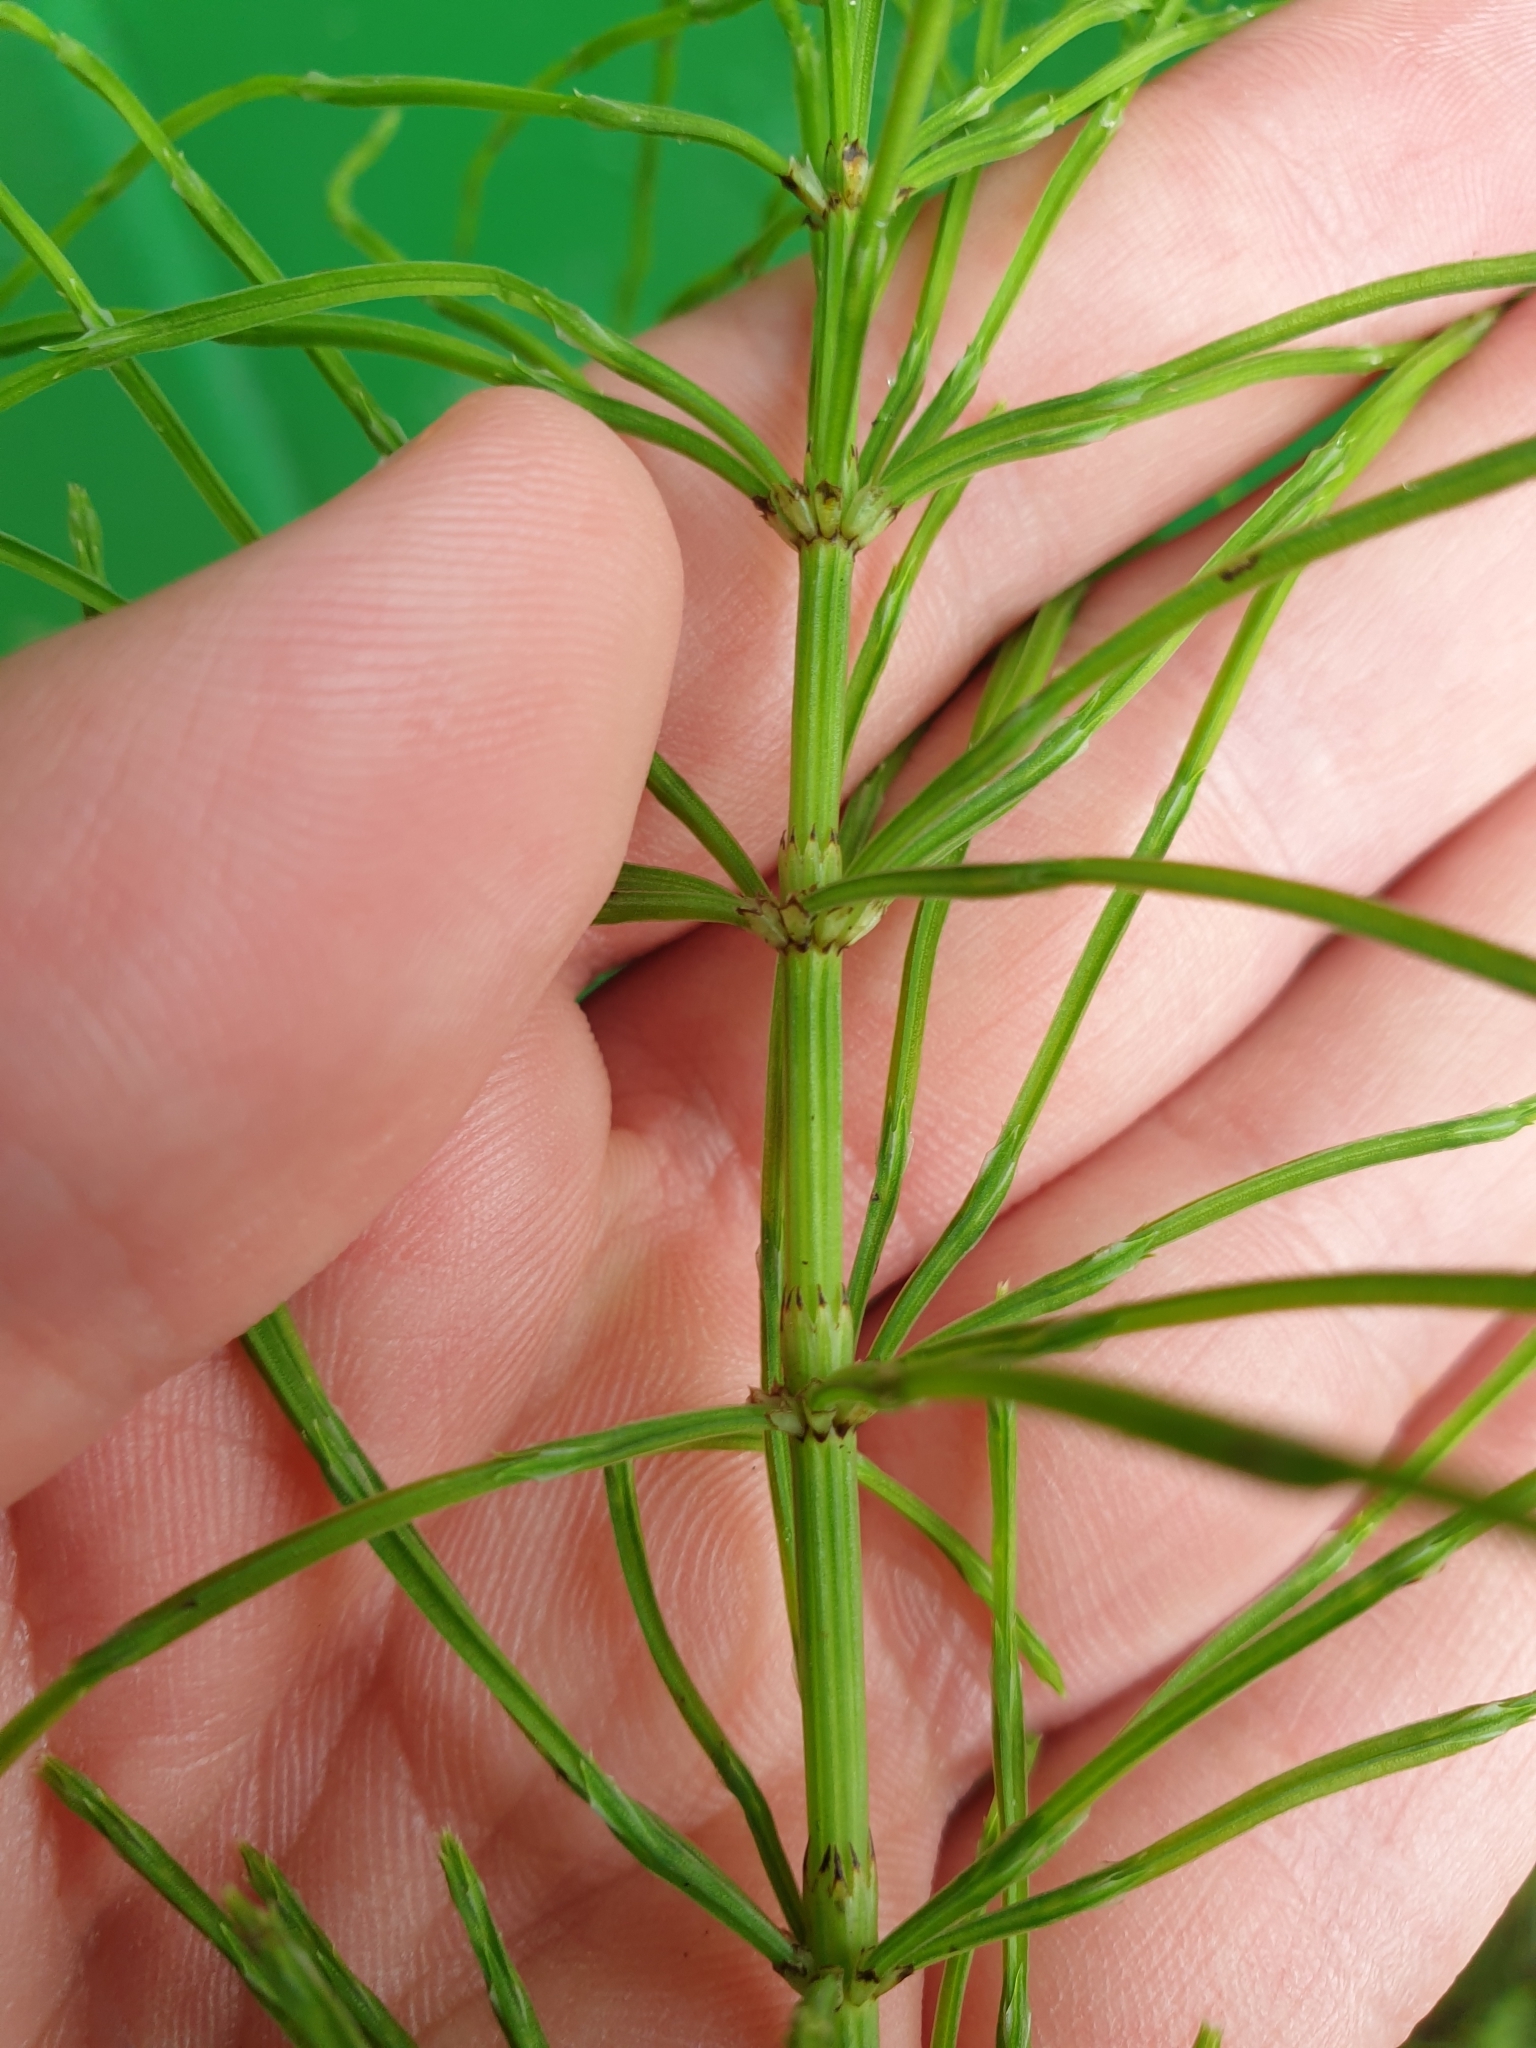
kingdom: Plantae
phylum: Tracheophyta
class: Polypodiopsida
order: Equisetales
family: Equisetaceae
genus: Equisetum
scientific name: Equisetum arvense
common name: Field horsetail
